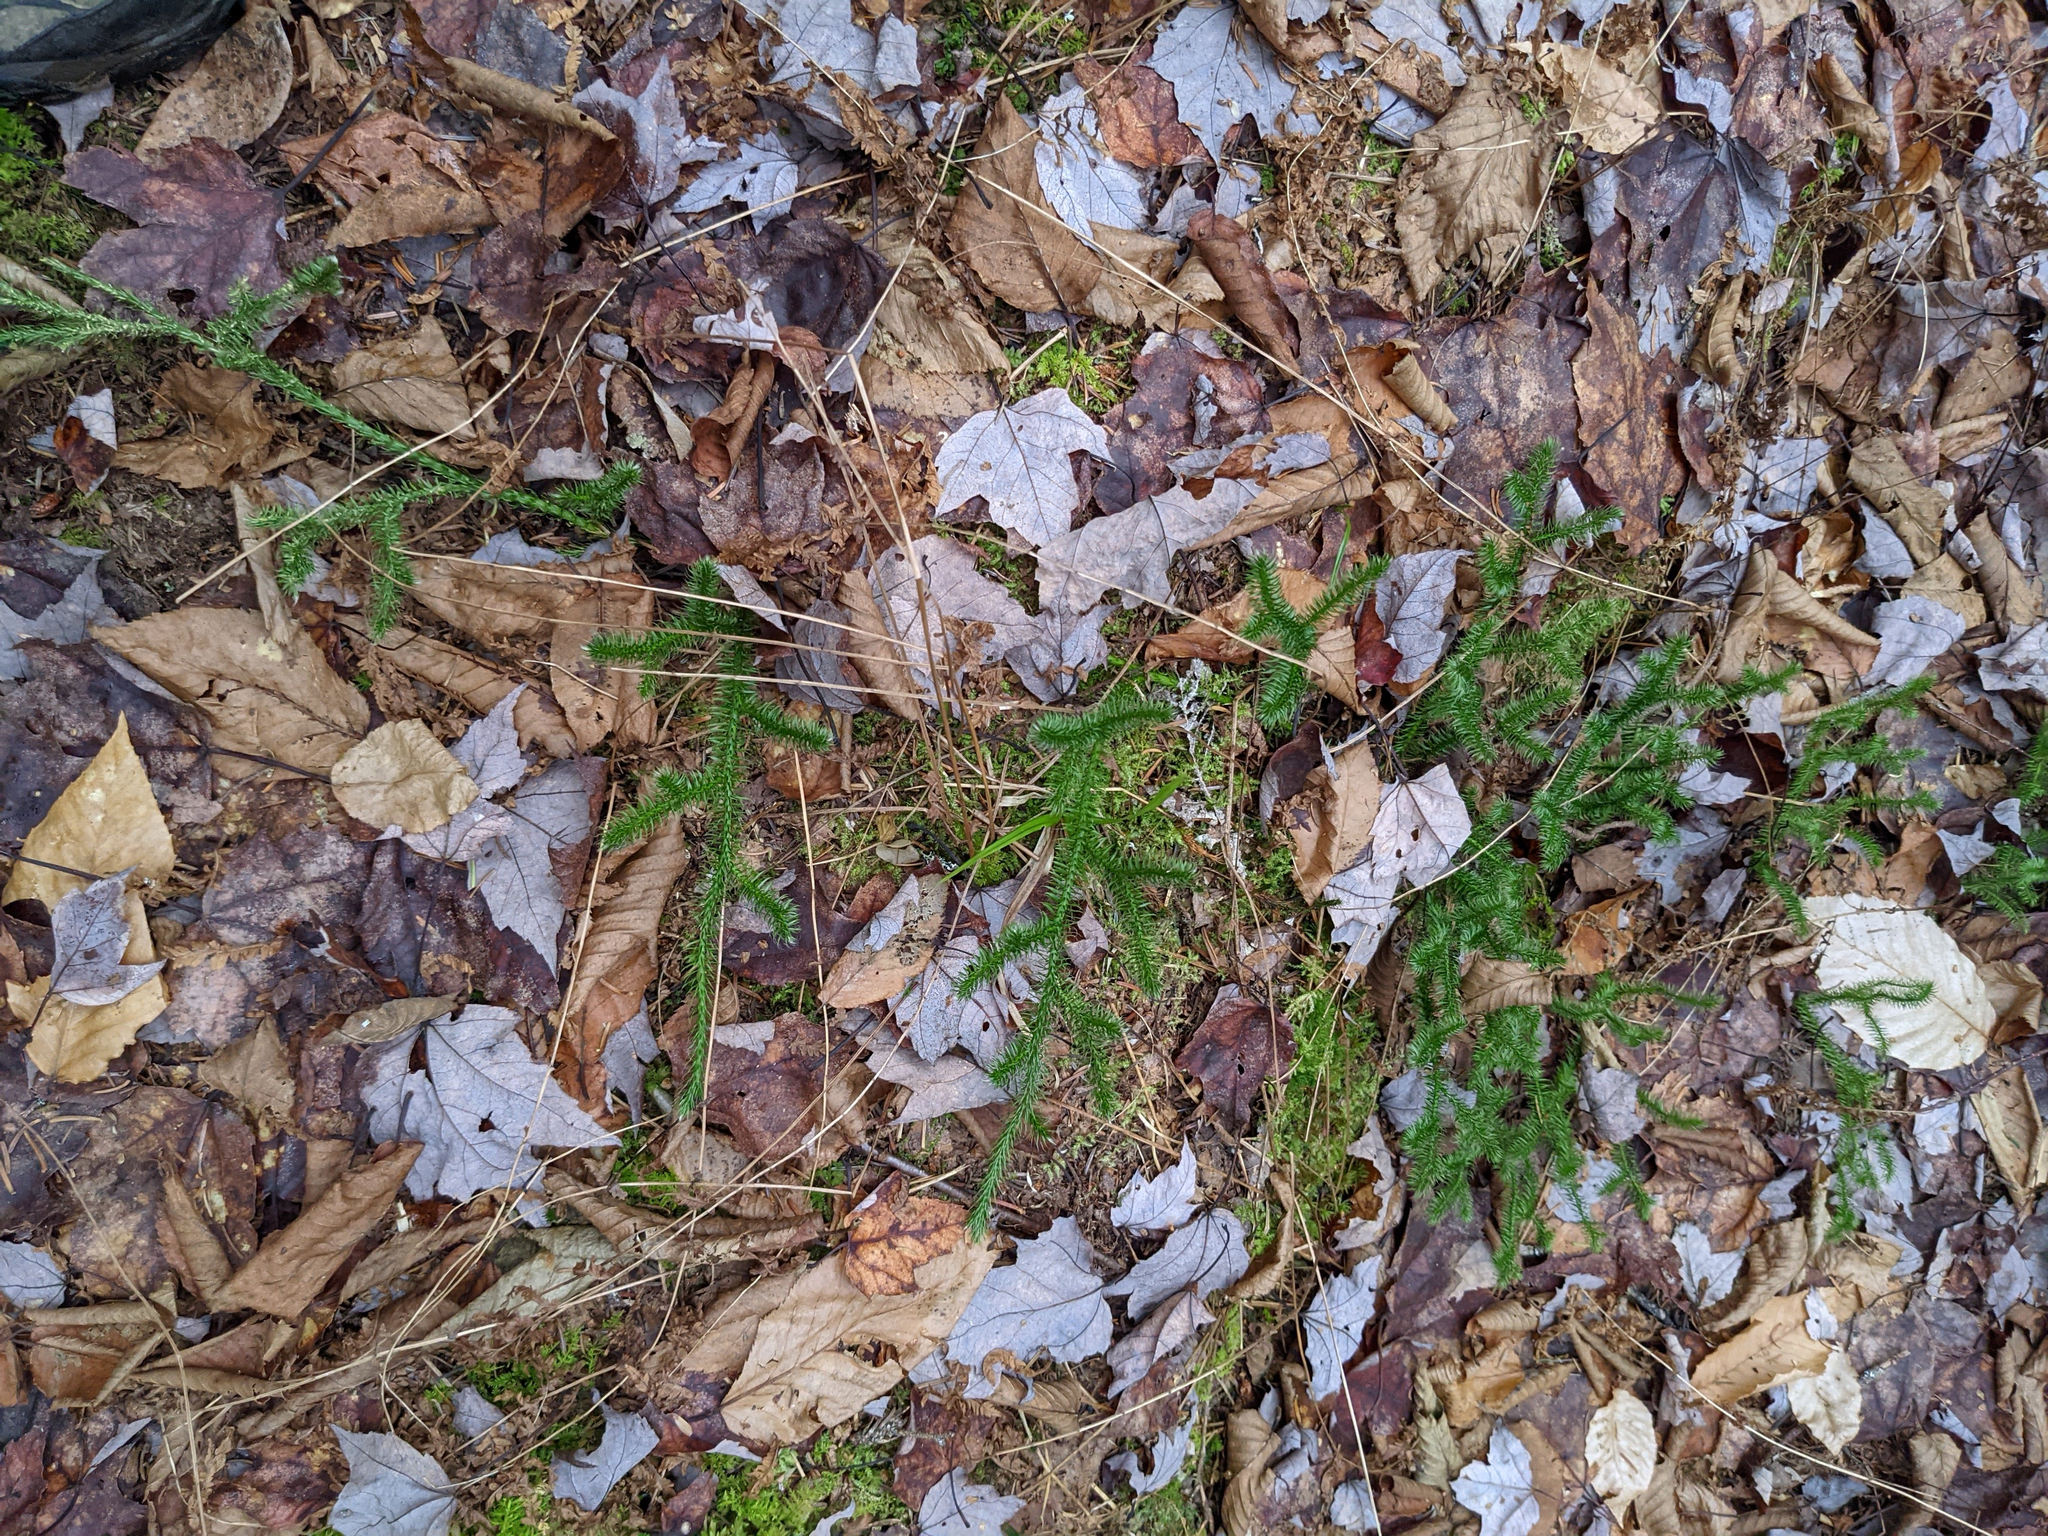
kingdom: Plantae
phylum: Tracheophyta
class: Lycopodiopsida
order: Lycopodiales
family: Lycopodiaceae
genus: Lycopodium
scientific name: Lycopodium clavatum
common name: Stag's-horn clubmoss
